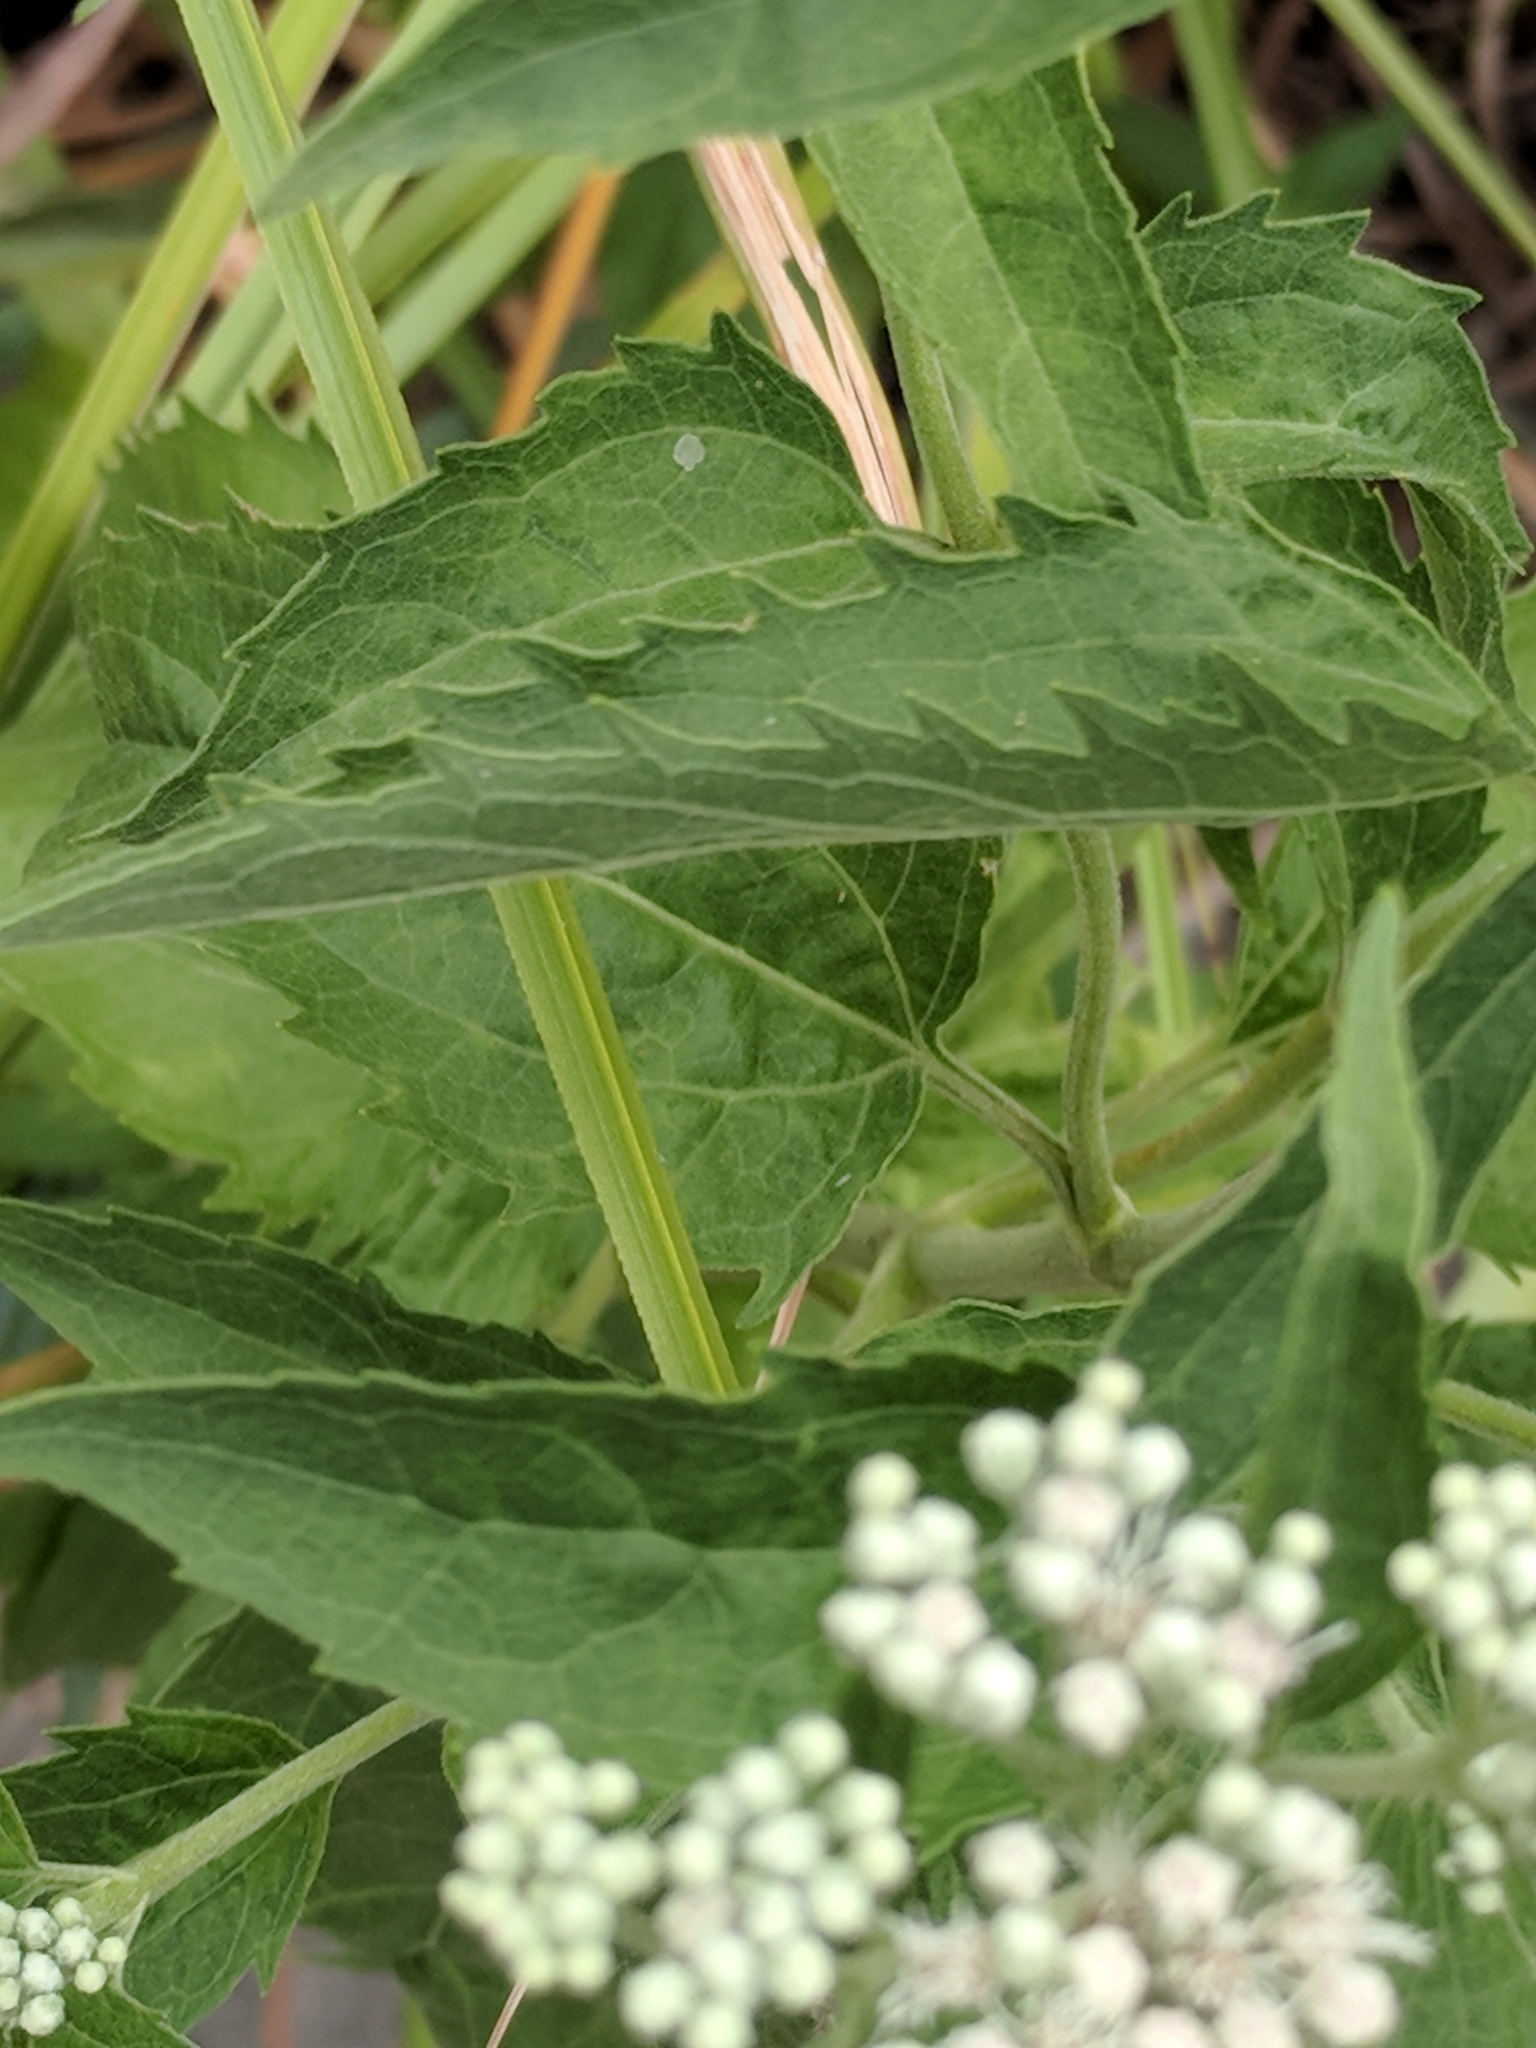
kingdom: Plantae
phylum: Tracheophyta
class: Magnoliopsida
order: Asterales
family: Asteraceae
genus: Eupatorium
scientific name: Eupatorium serotinum
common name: Late boneset
